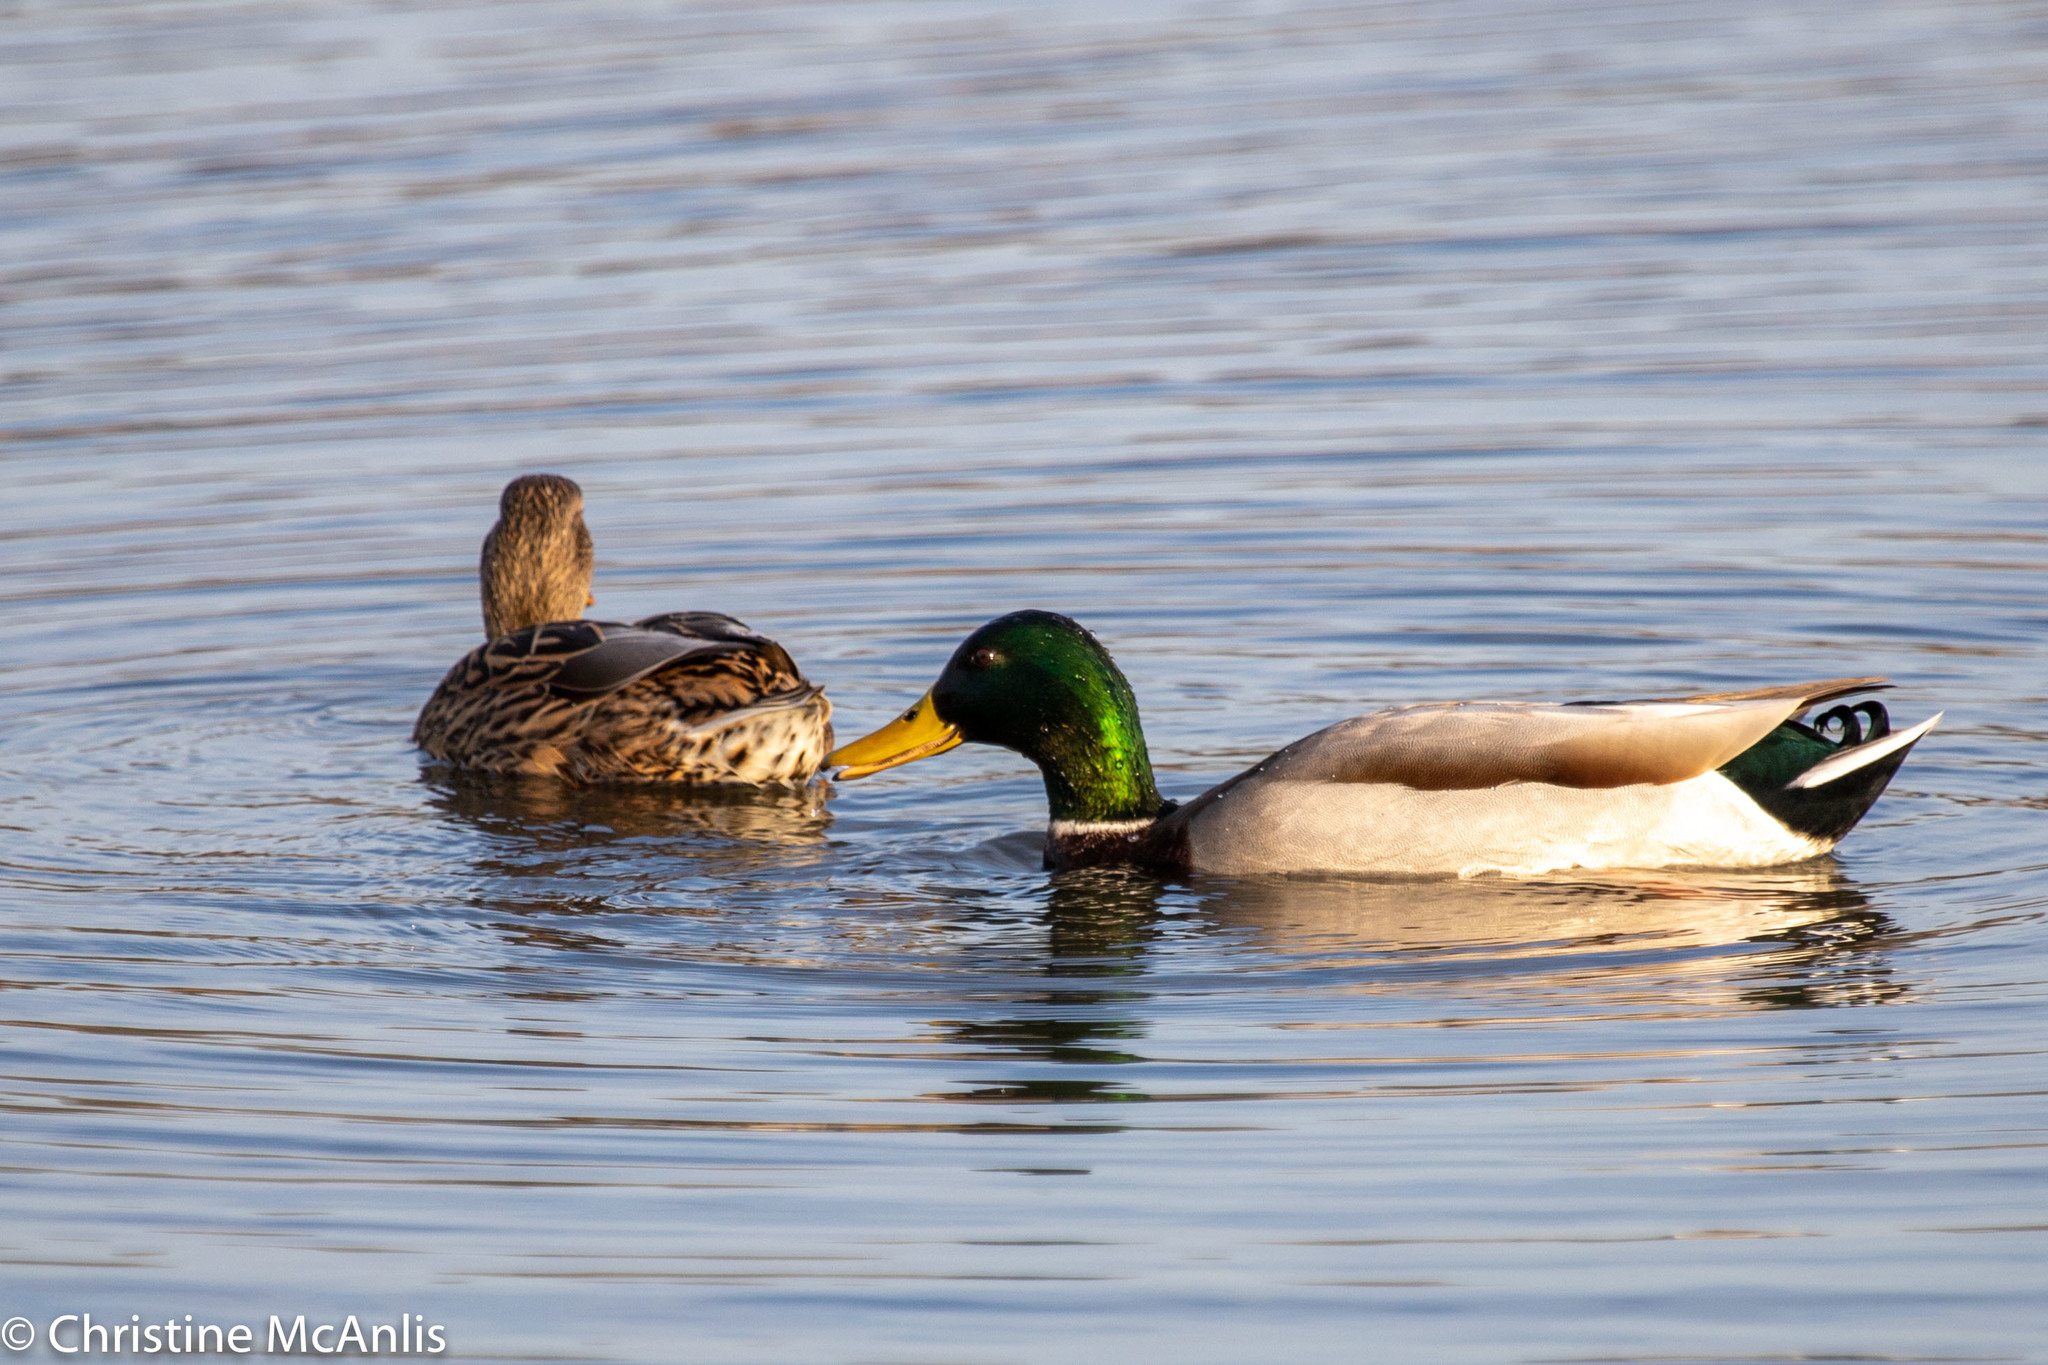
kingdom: Animalia
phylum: Chordata
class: Aves
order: Anseriformes
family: Anatidae
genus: Anas
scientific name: Anas platyrhynchos
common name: Mallard
